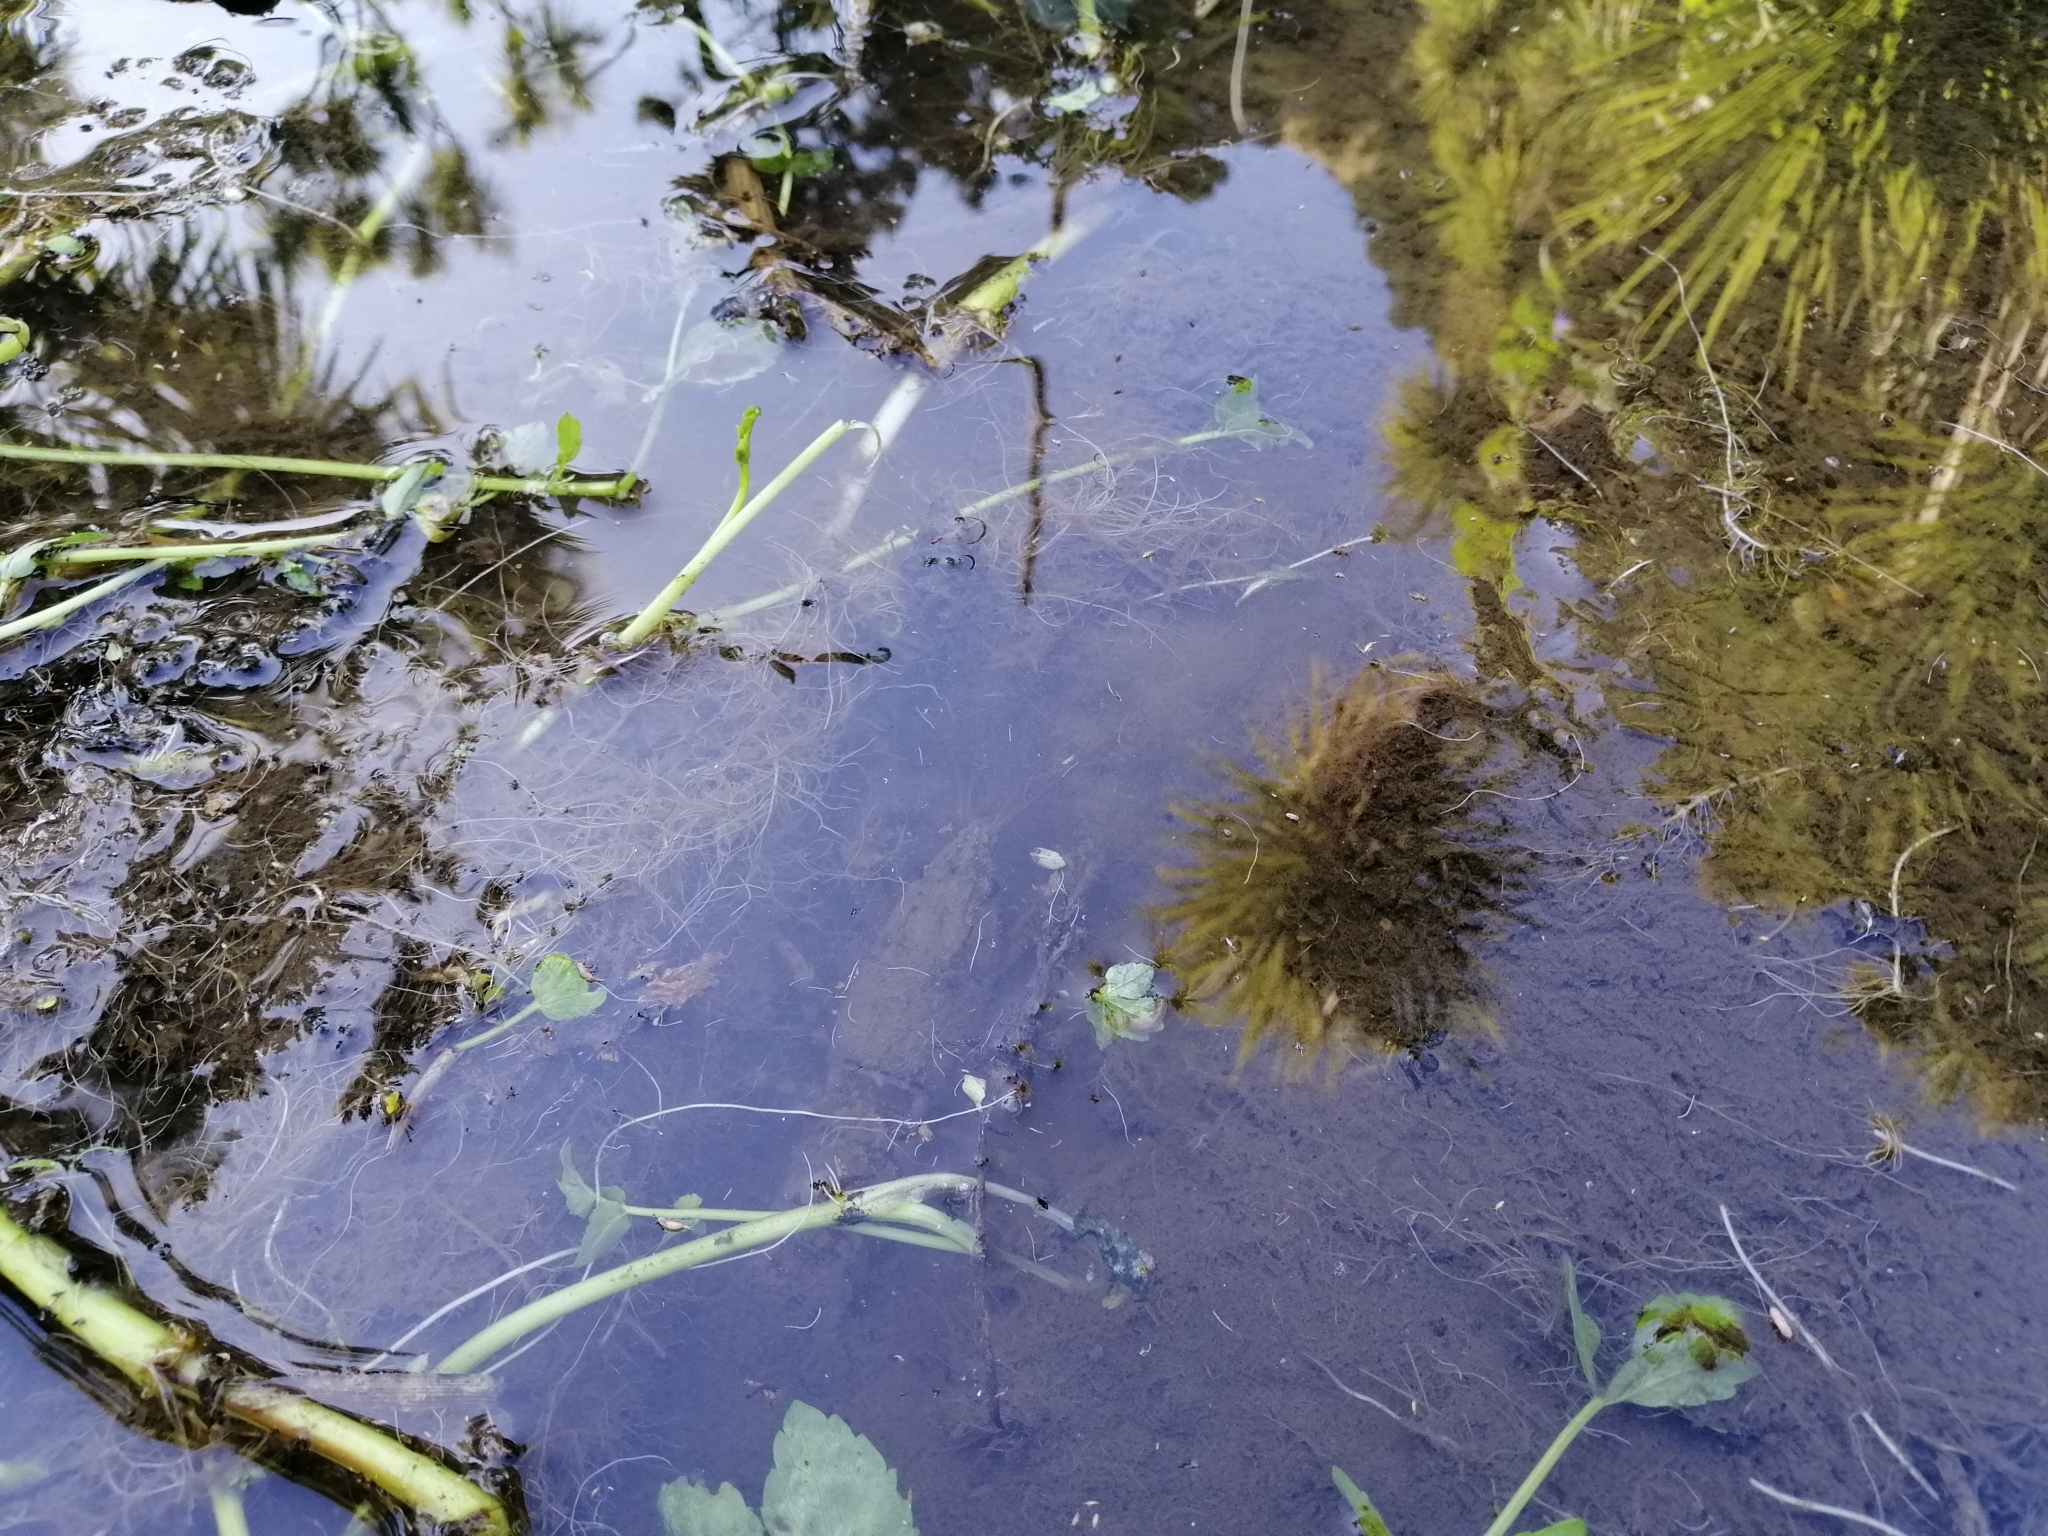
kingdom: Animalia
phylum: Arthropoda
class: Malacostraca
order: Decapoda
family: Parastacidae
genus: Paranephrops
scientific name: Paranephrops planifrons
